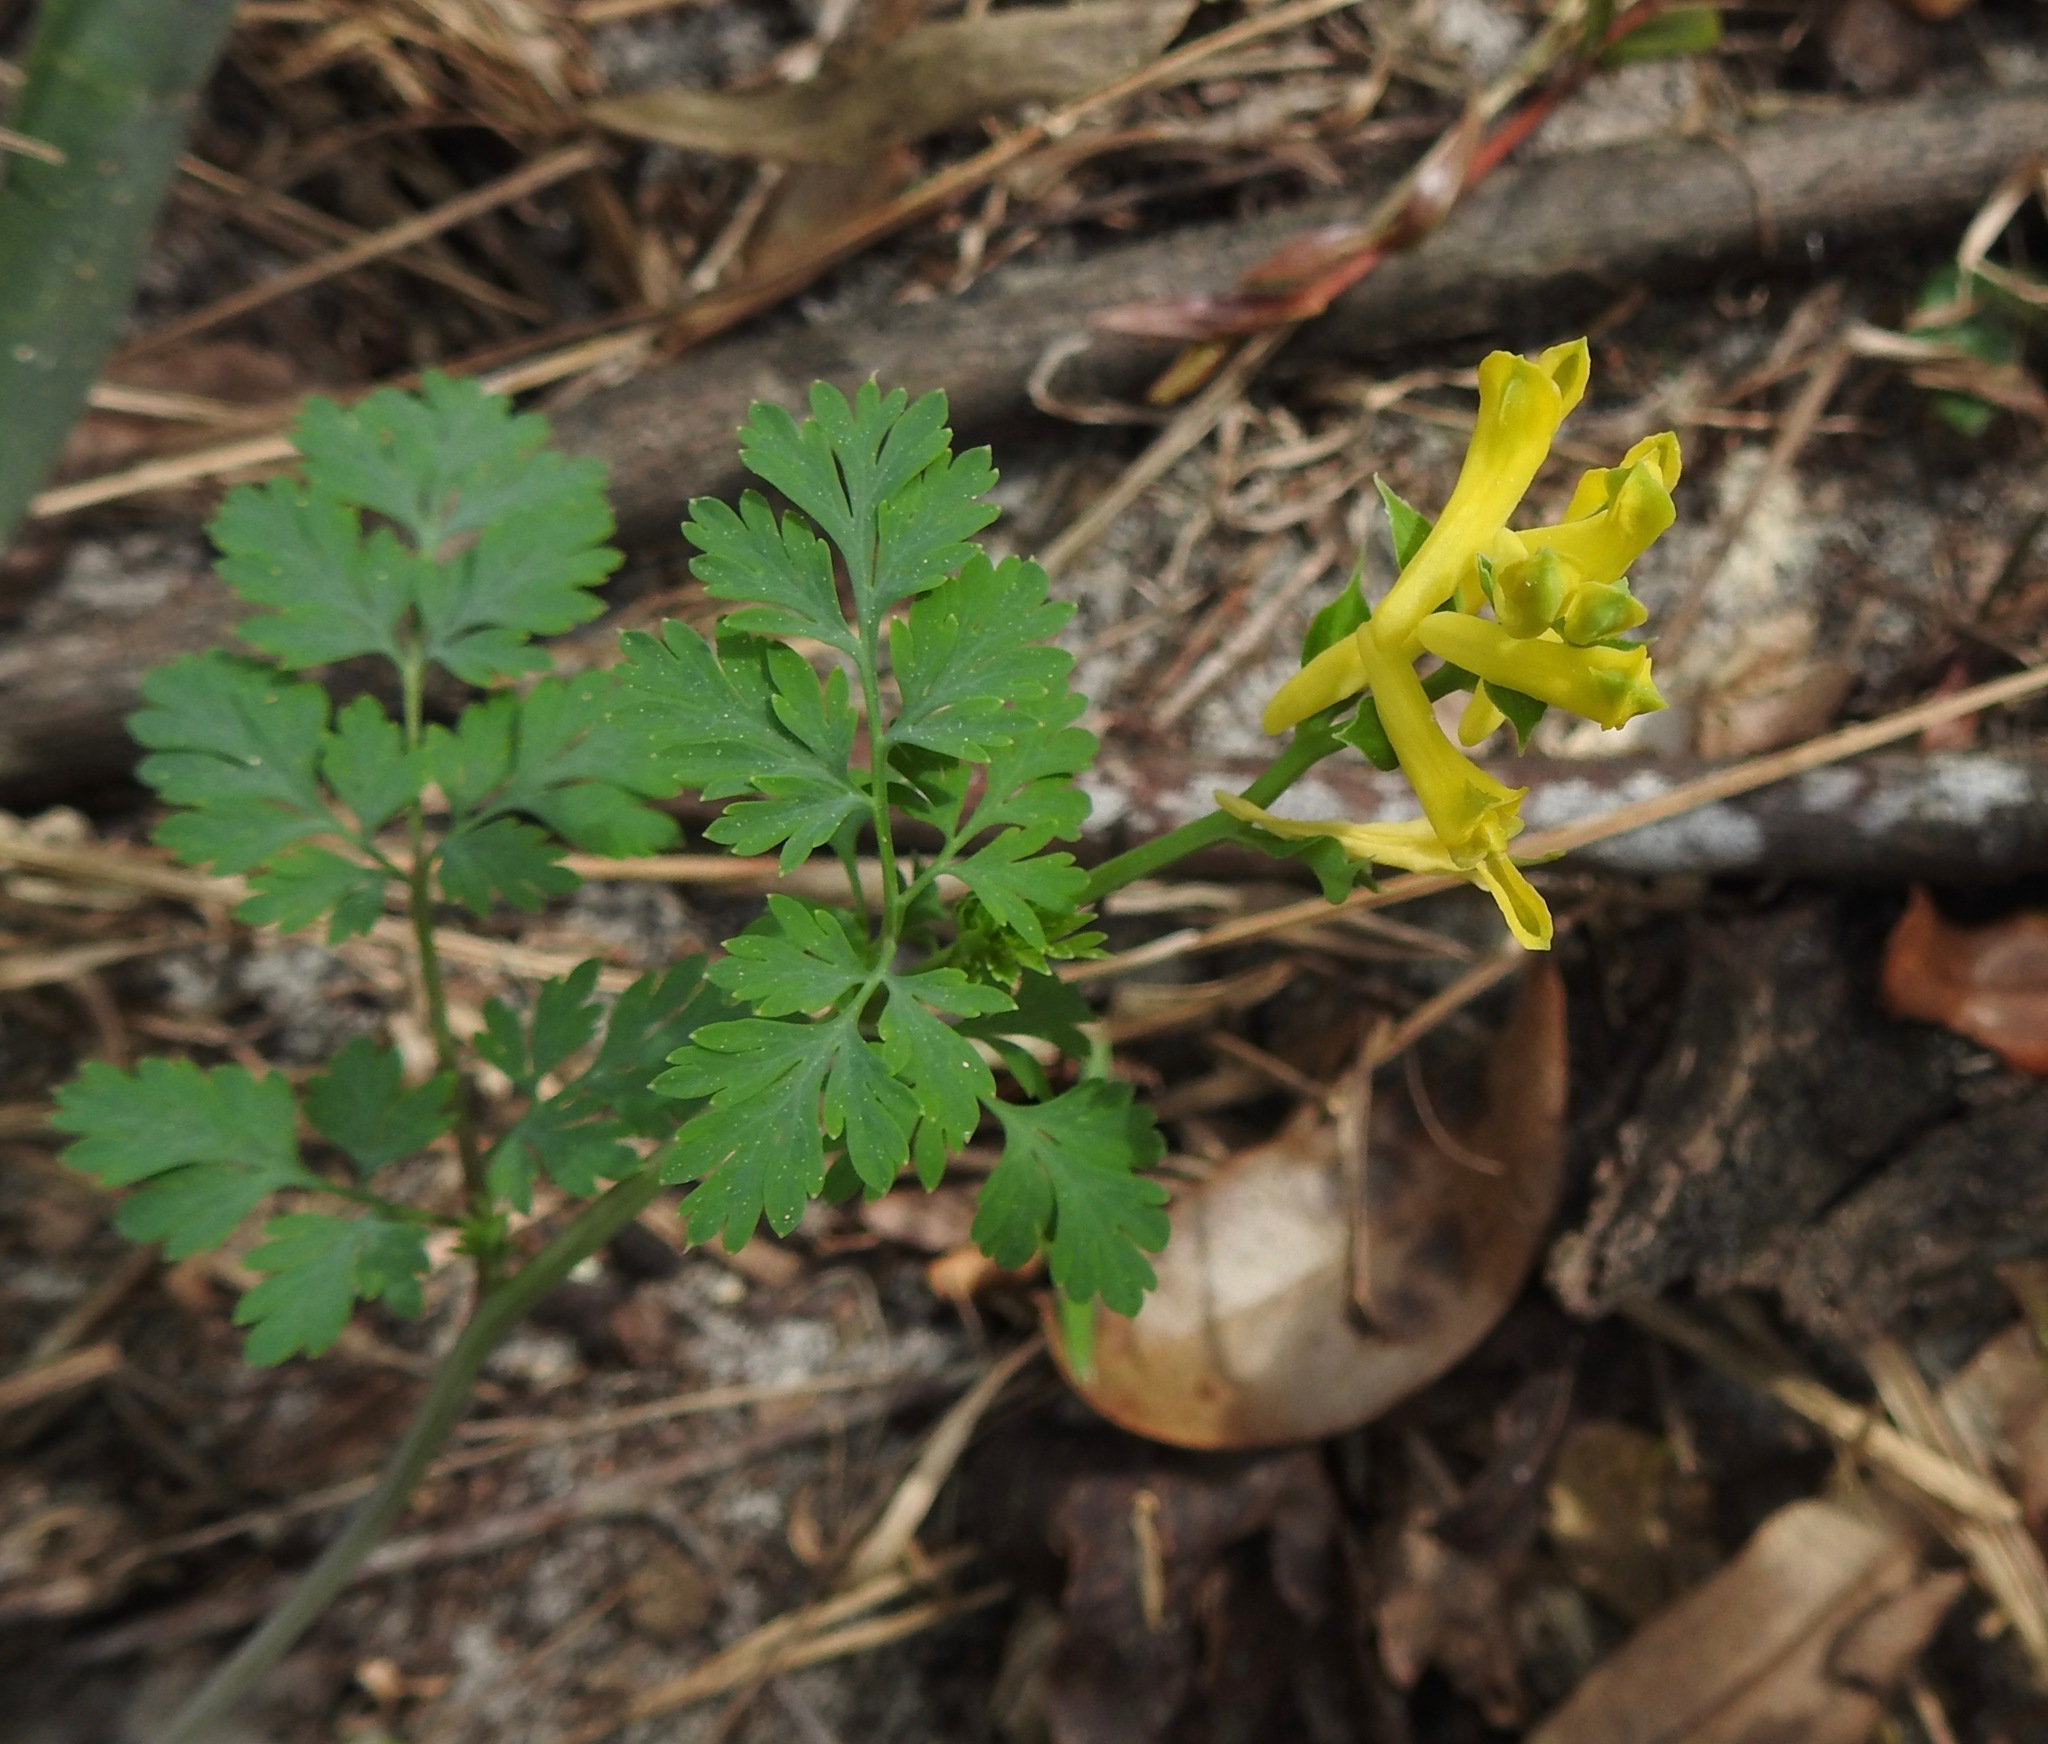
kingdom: Plantae
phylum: Tracheophyta
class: Magnoliopsida
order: Ranunculales
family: Papaveraceae
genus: Corydalis
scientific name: Corydalis micrantha
